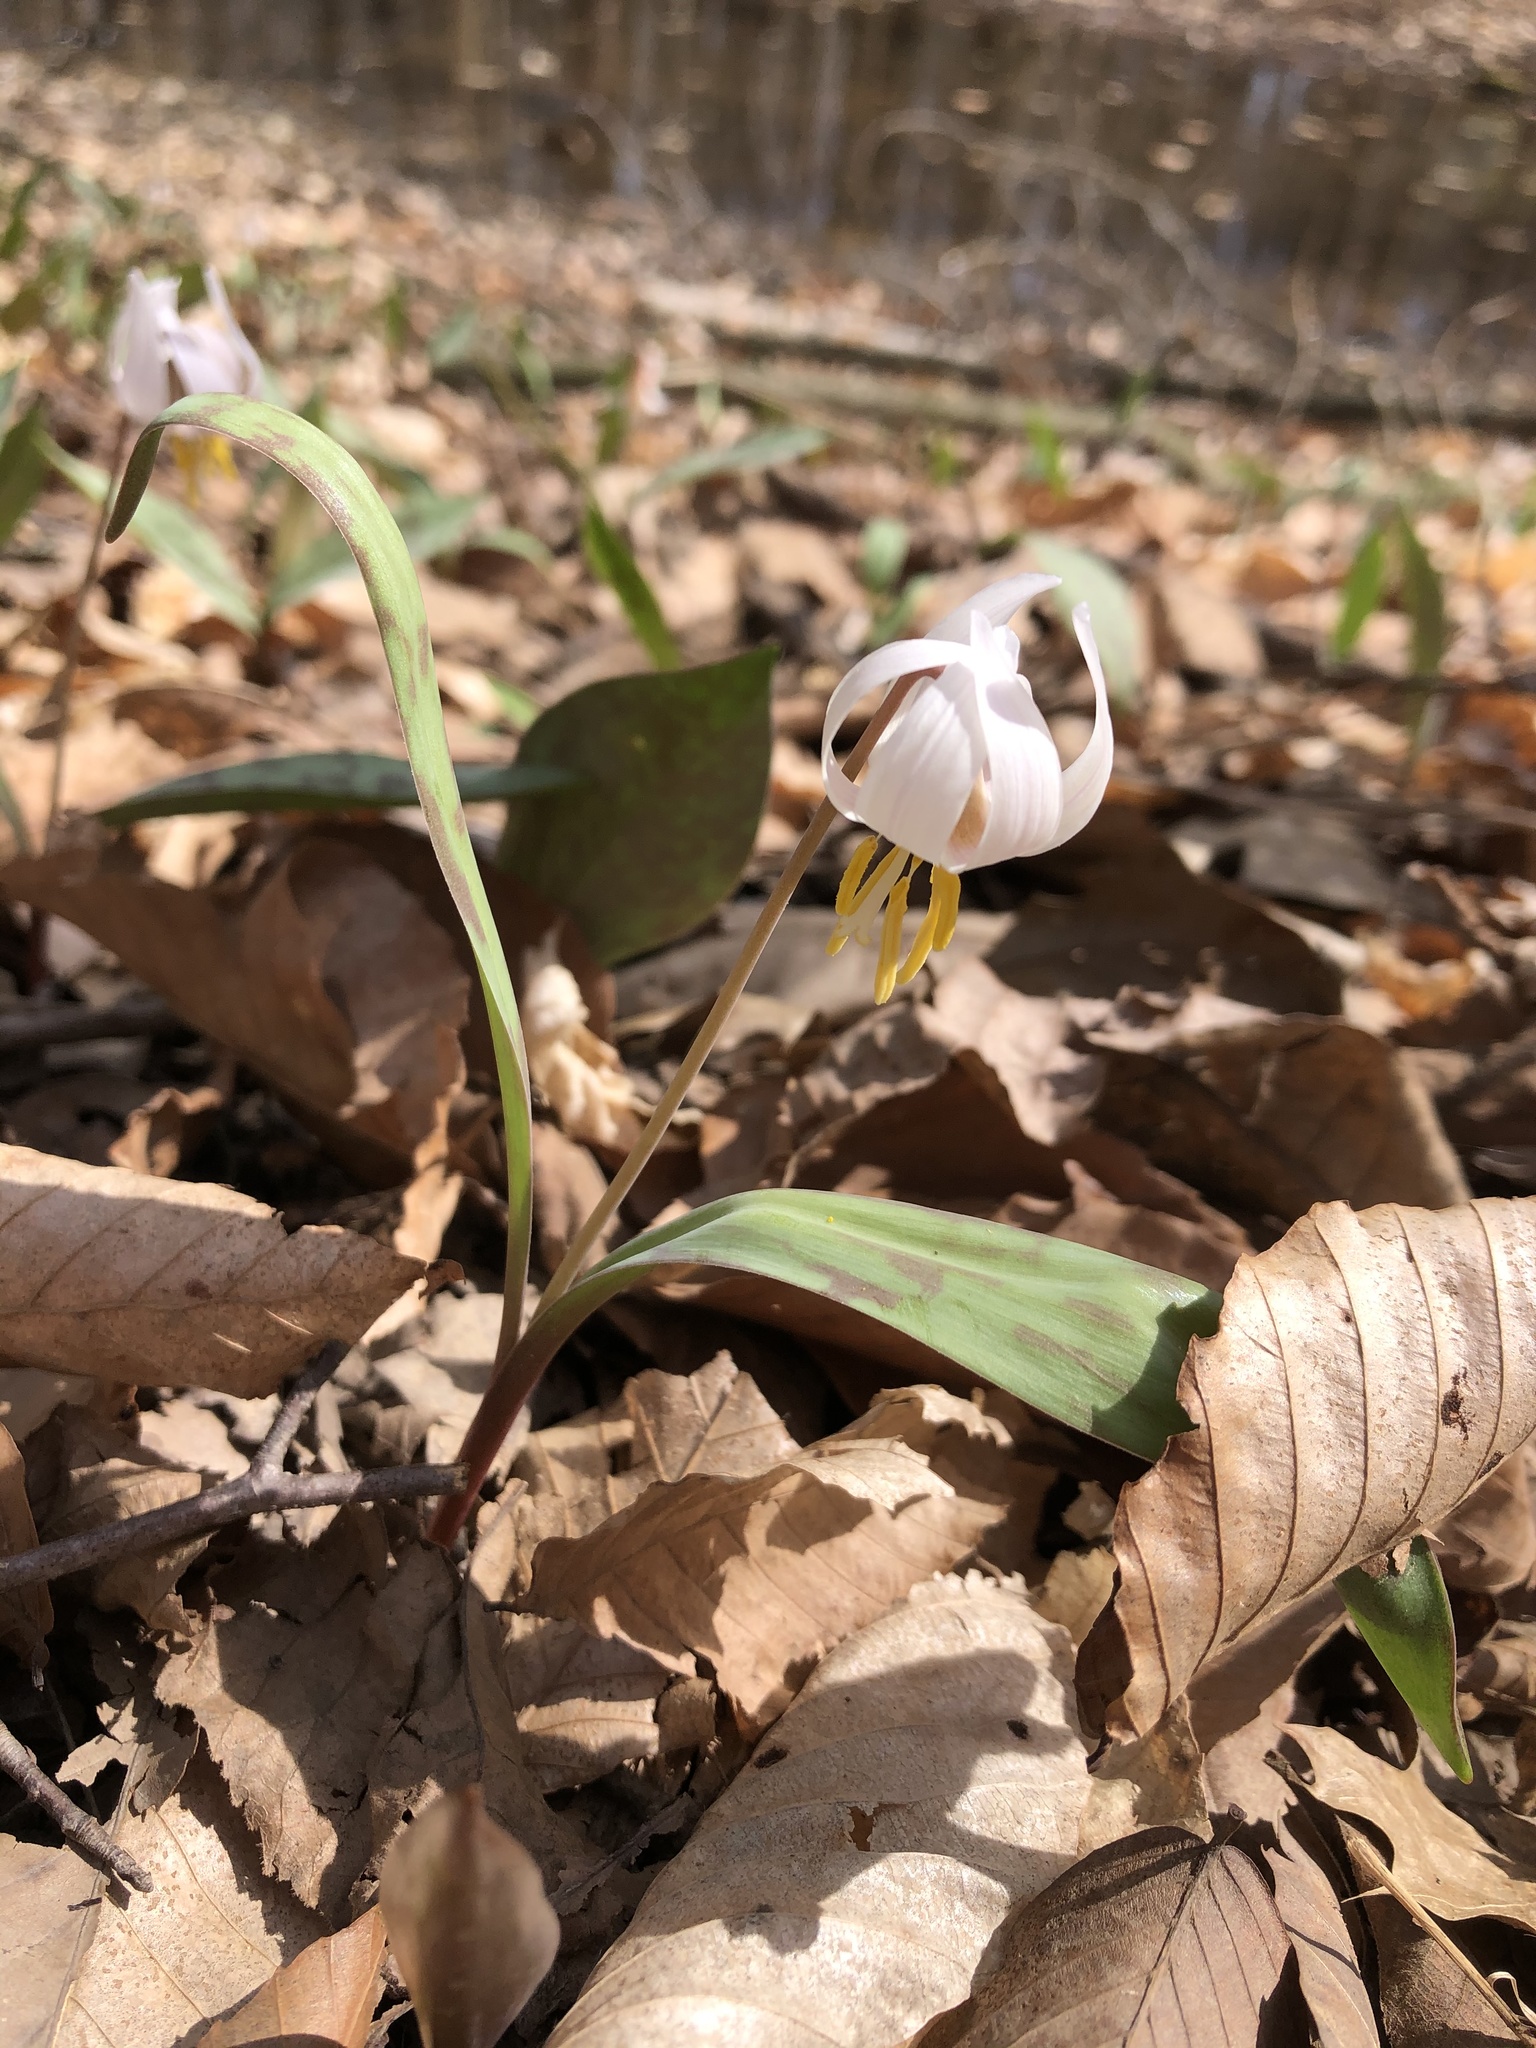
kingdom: Plantae
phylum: Tracheophyta
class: Liliopsida
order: Liliales
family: Liliaceae
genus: Erythronium
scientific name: Erythronium albidum
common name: White trout-lily
